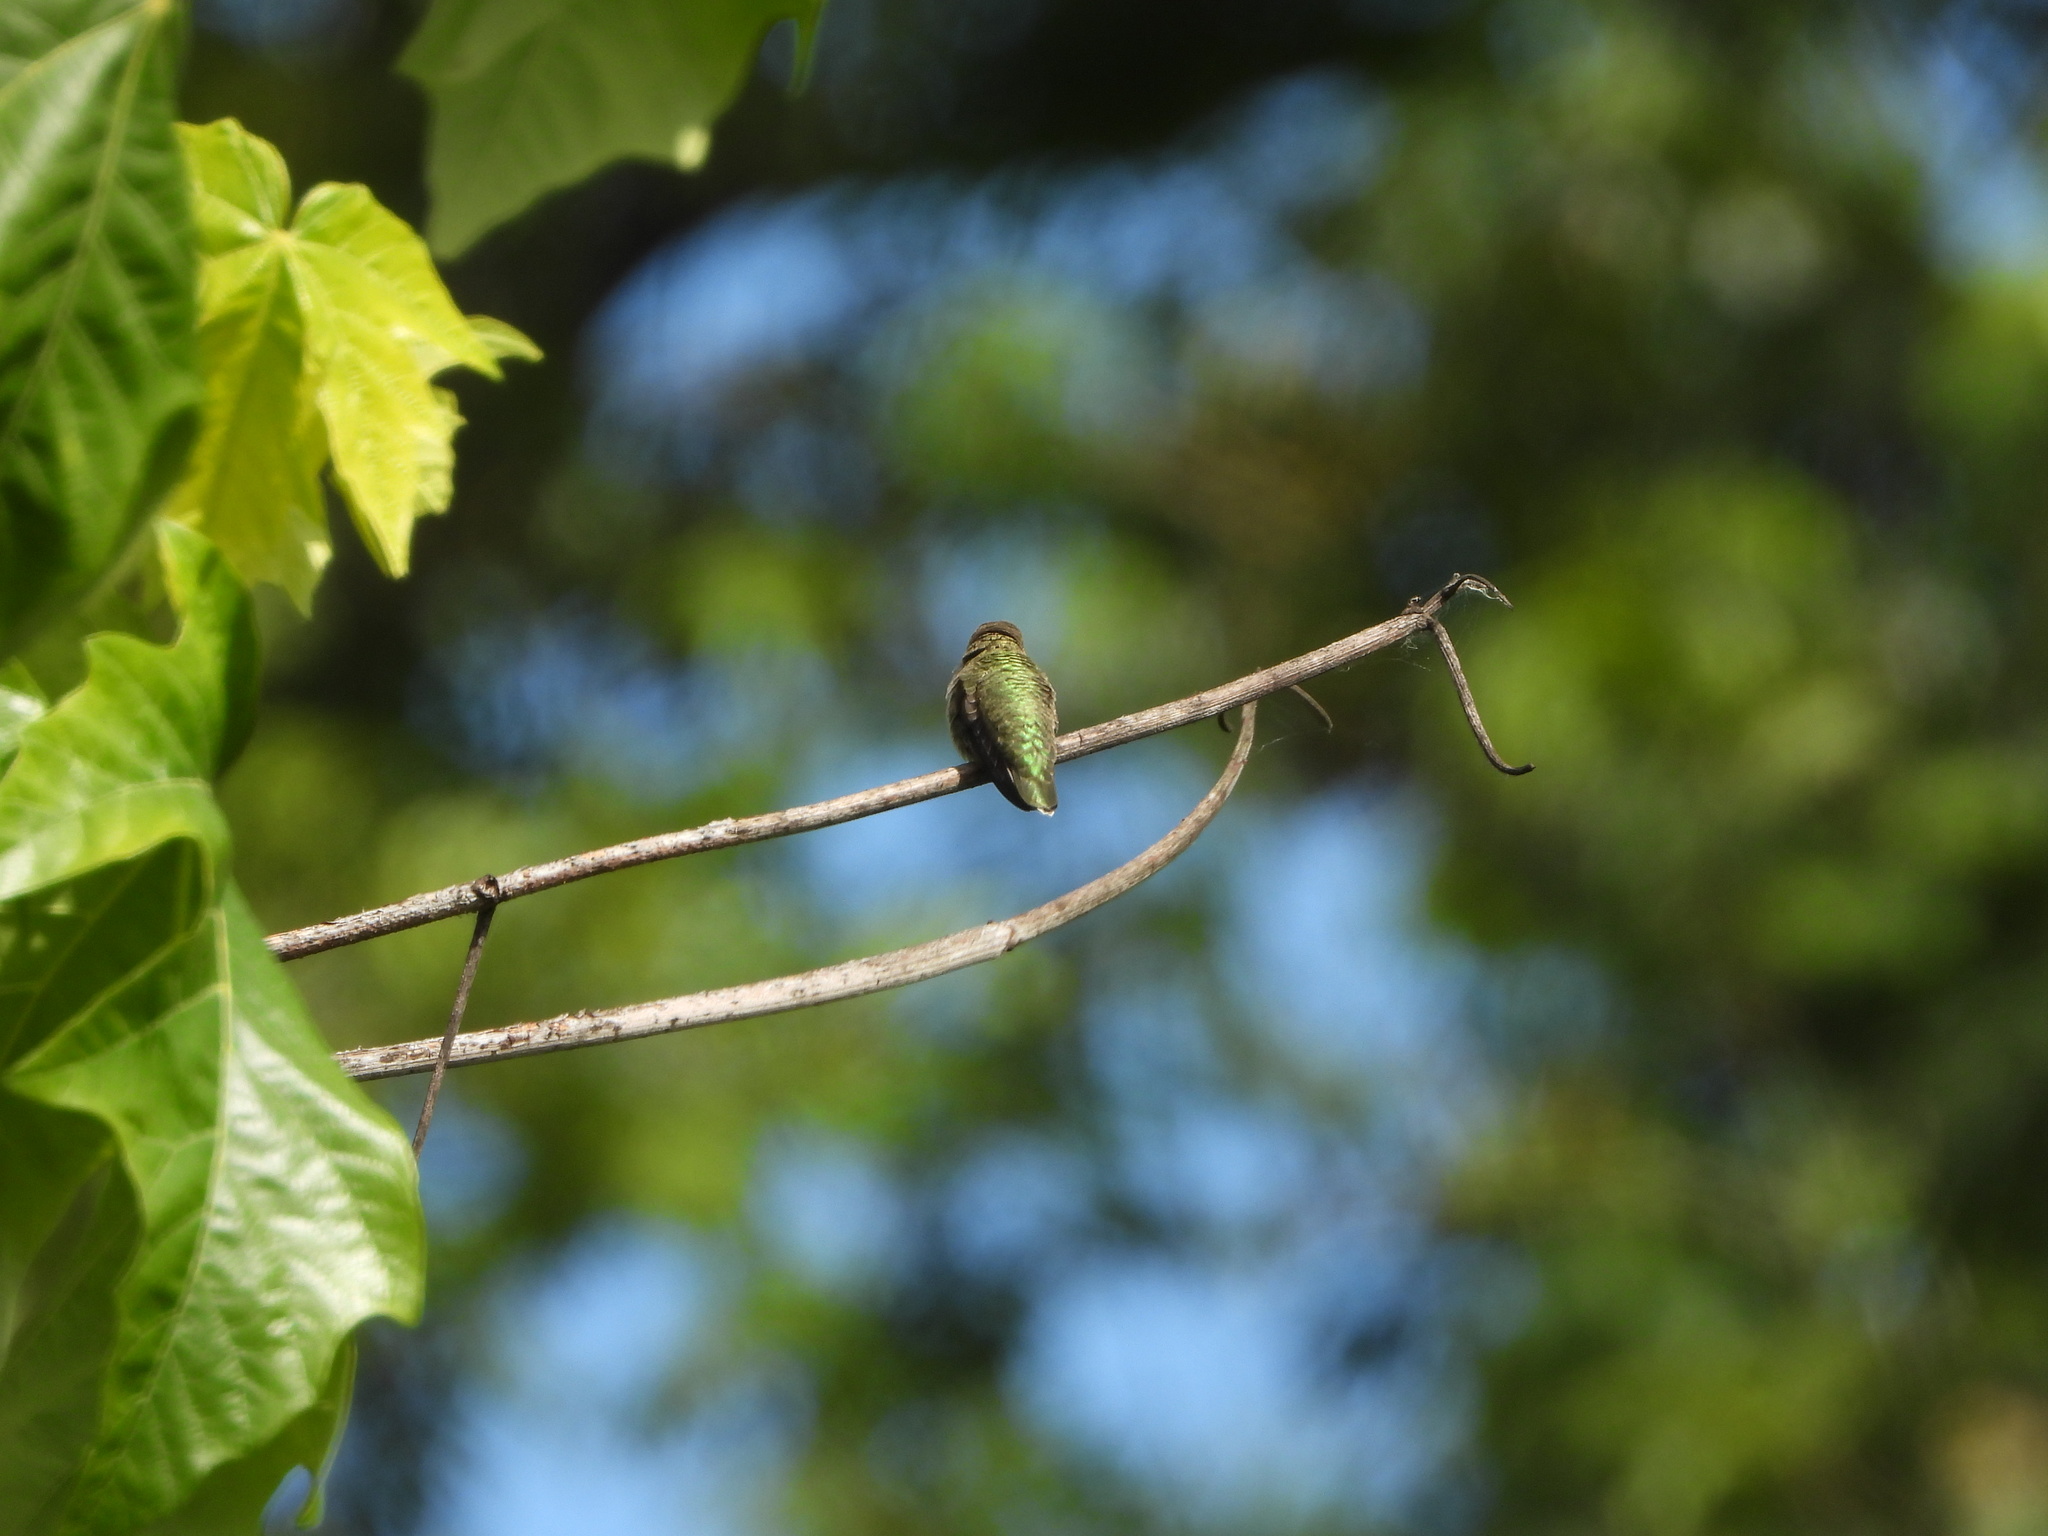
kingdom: Animalia
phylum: Chordata
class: Aves
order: Apodiformes
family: Trochilidae
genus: Calypte
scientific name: Calypte anna
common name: Anna's hummingbird
